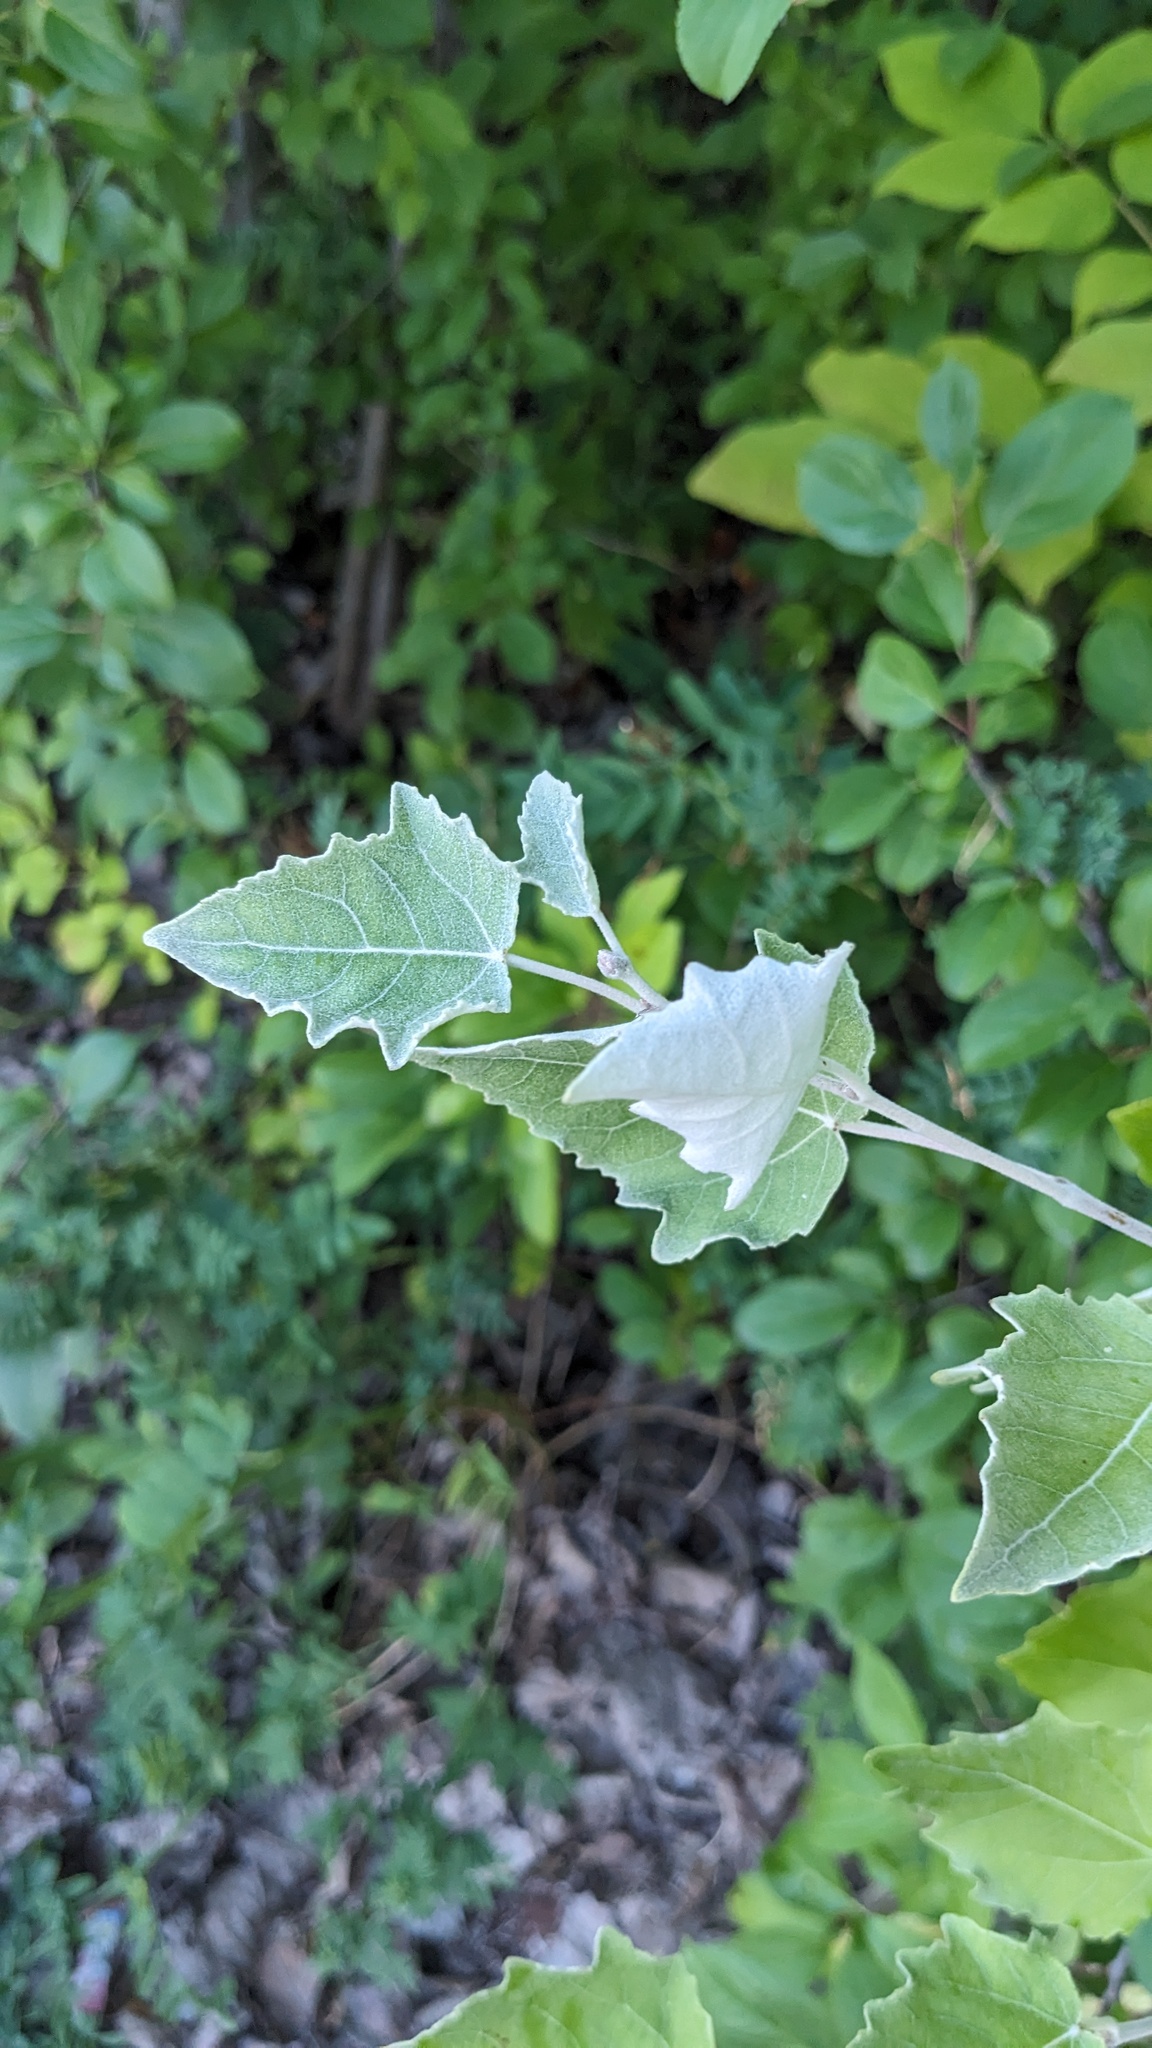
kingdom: Plantae
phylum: Tracheophyta
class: Magnoliopsida
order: Malpighiales
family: Salicaceae
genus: Populus
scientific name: Populus alba
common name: White poplar
